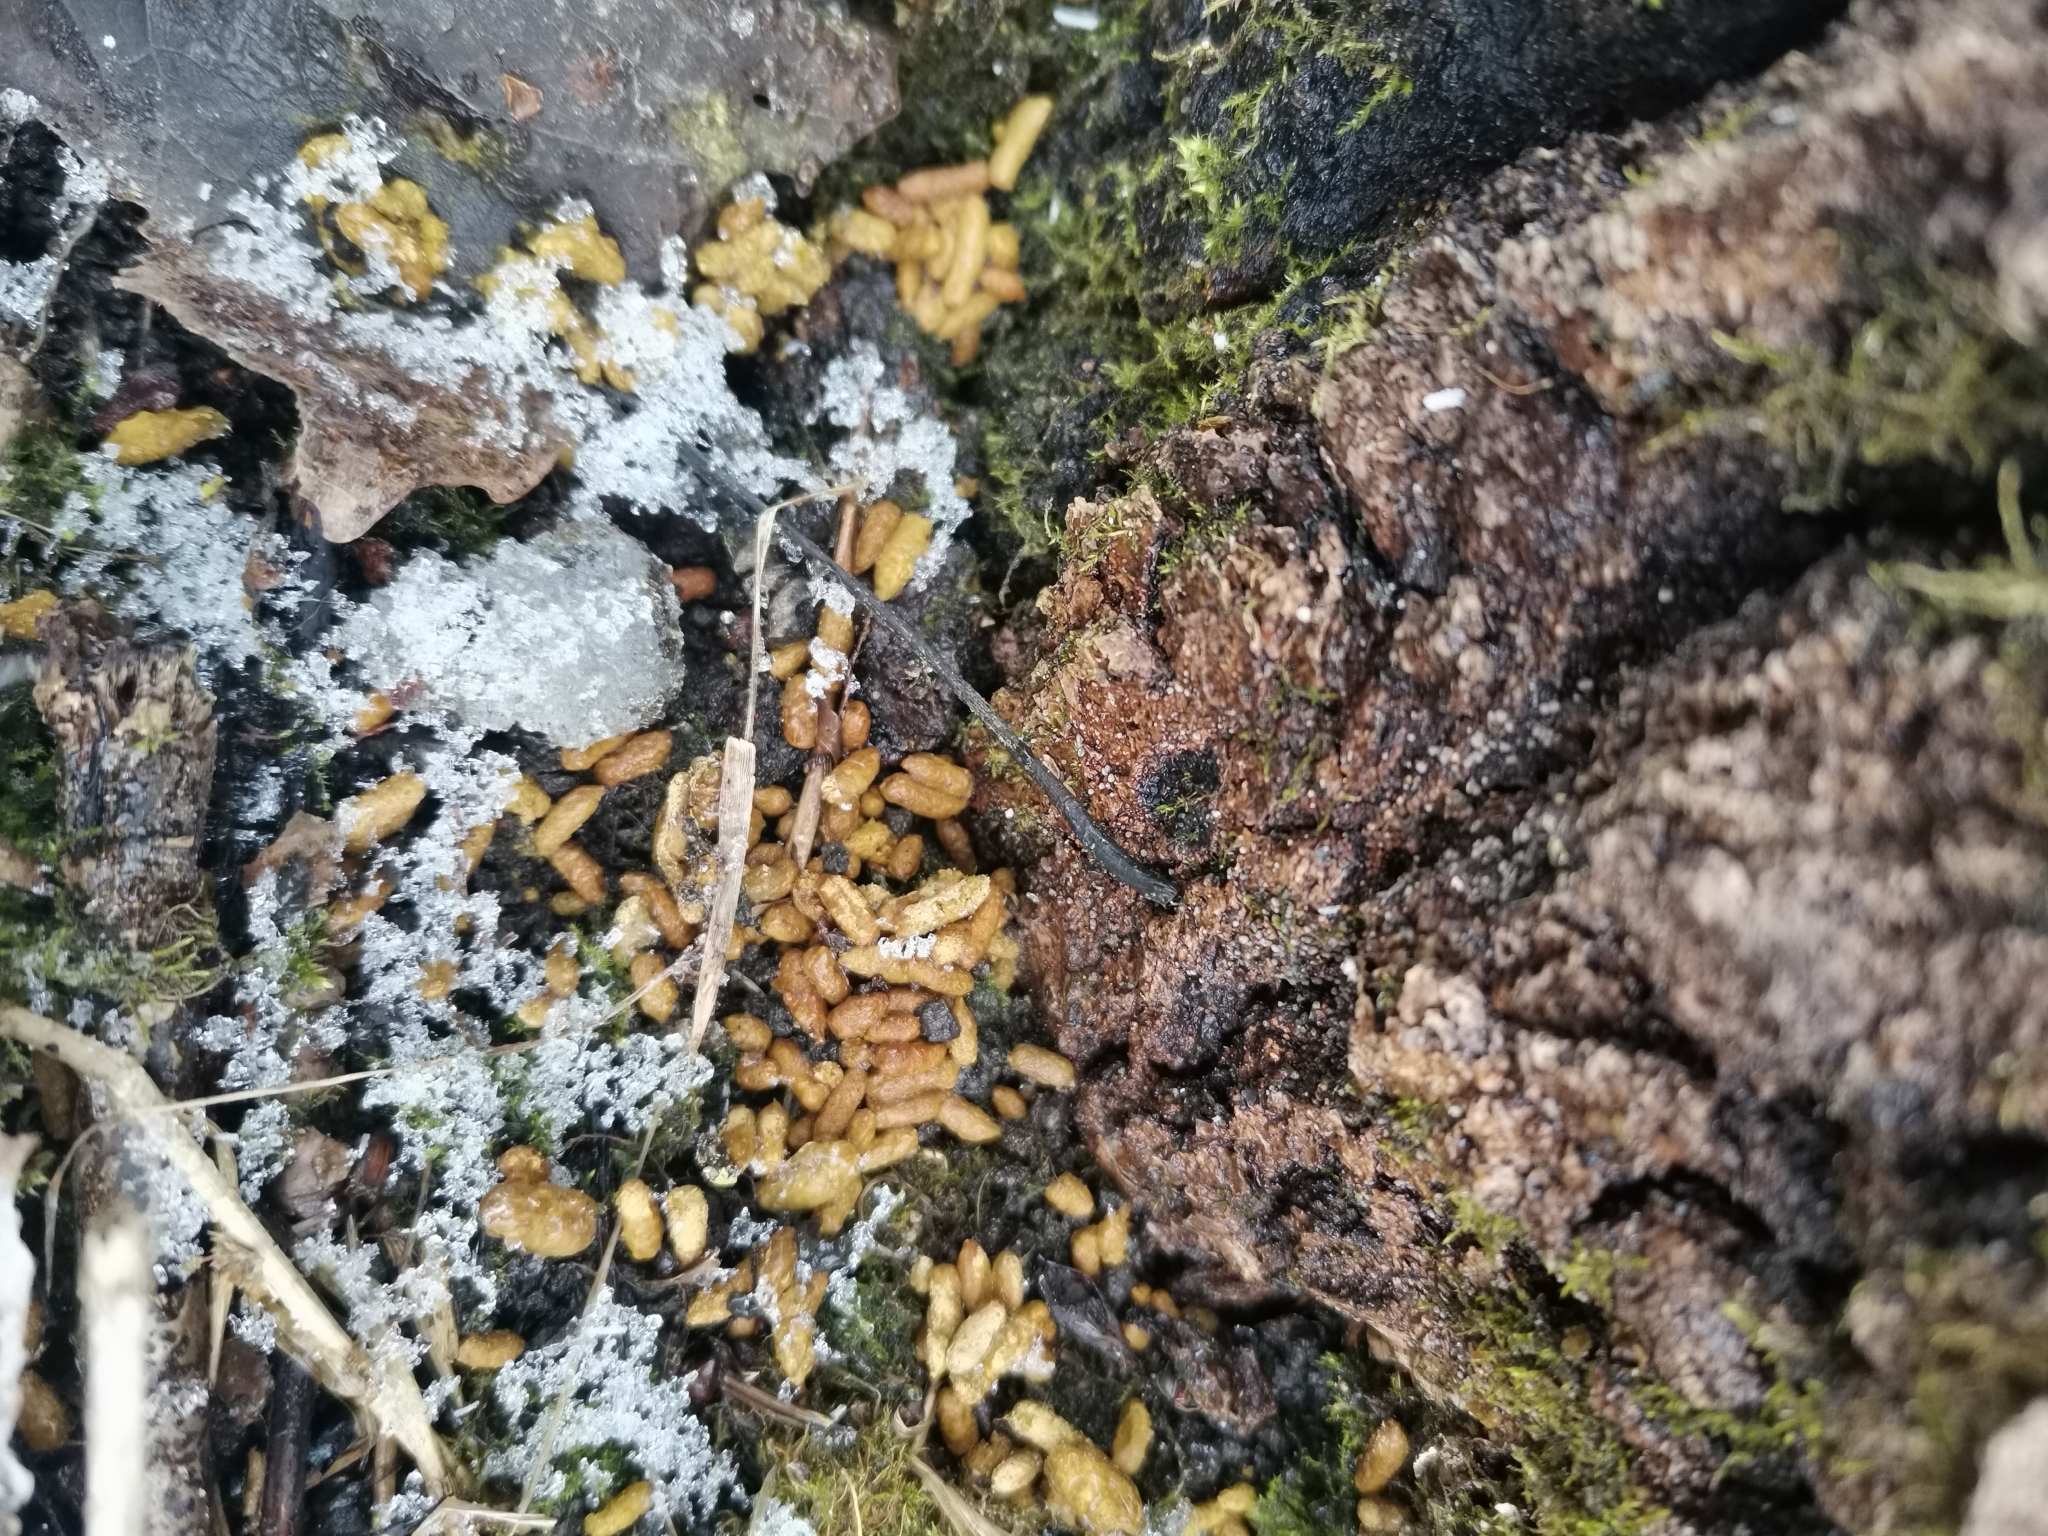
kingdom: Animalia
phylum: Chordata
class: Mammalia
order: Rodentia
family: Sciuridae
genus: Pteromys
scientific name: Pteromys volans
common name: Siberian flying squirrel
